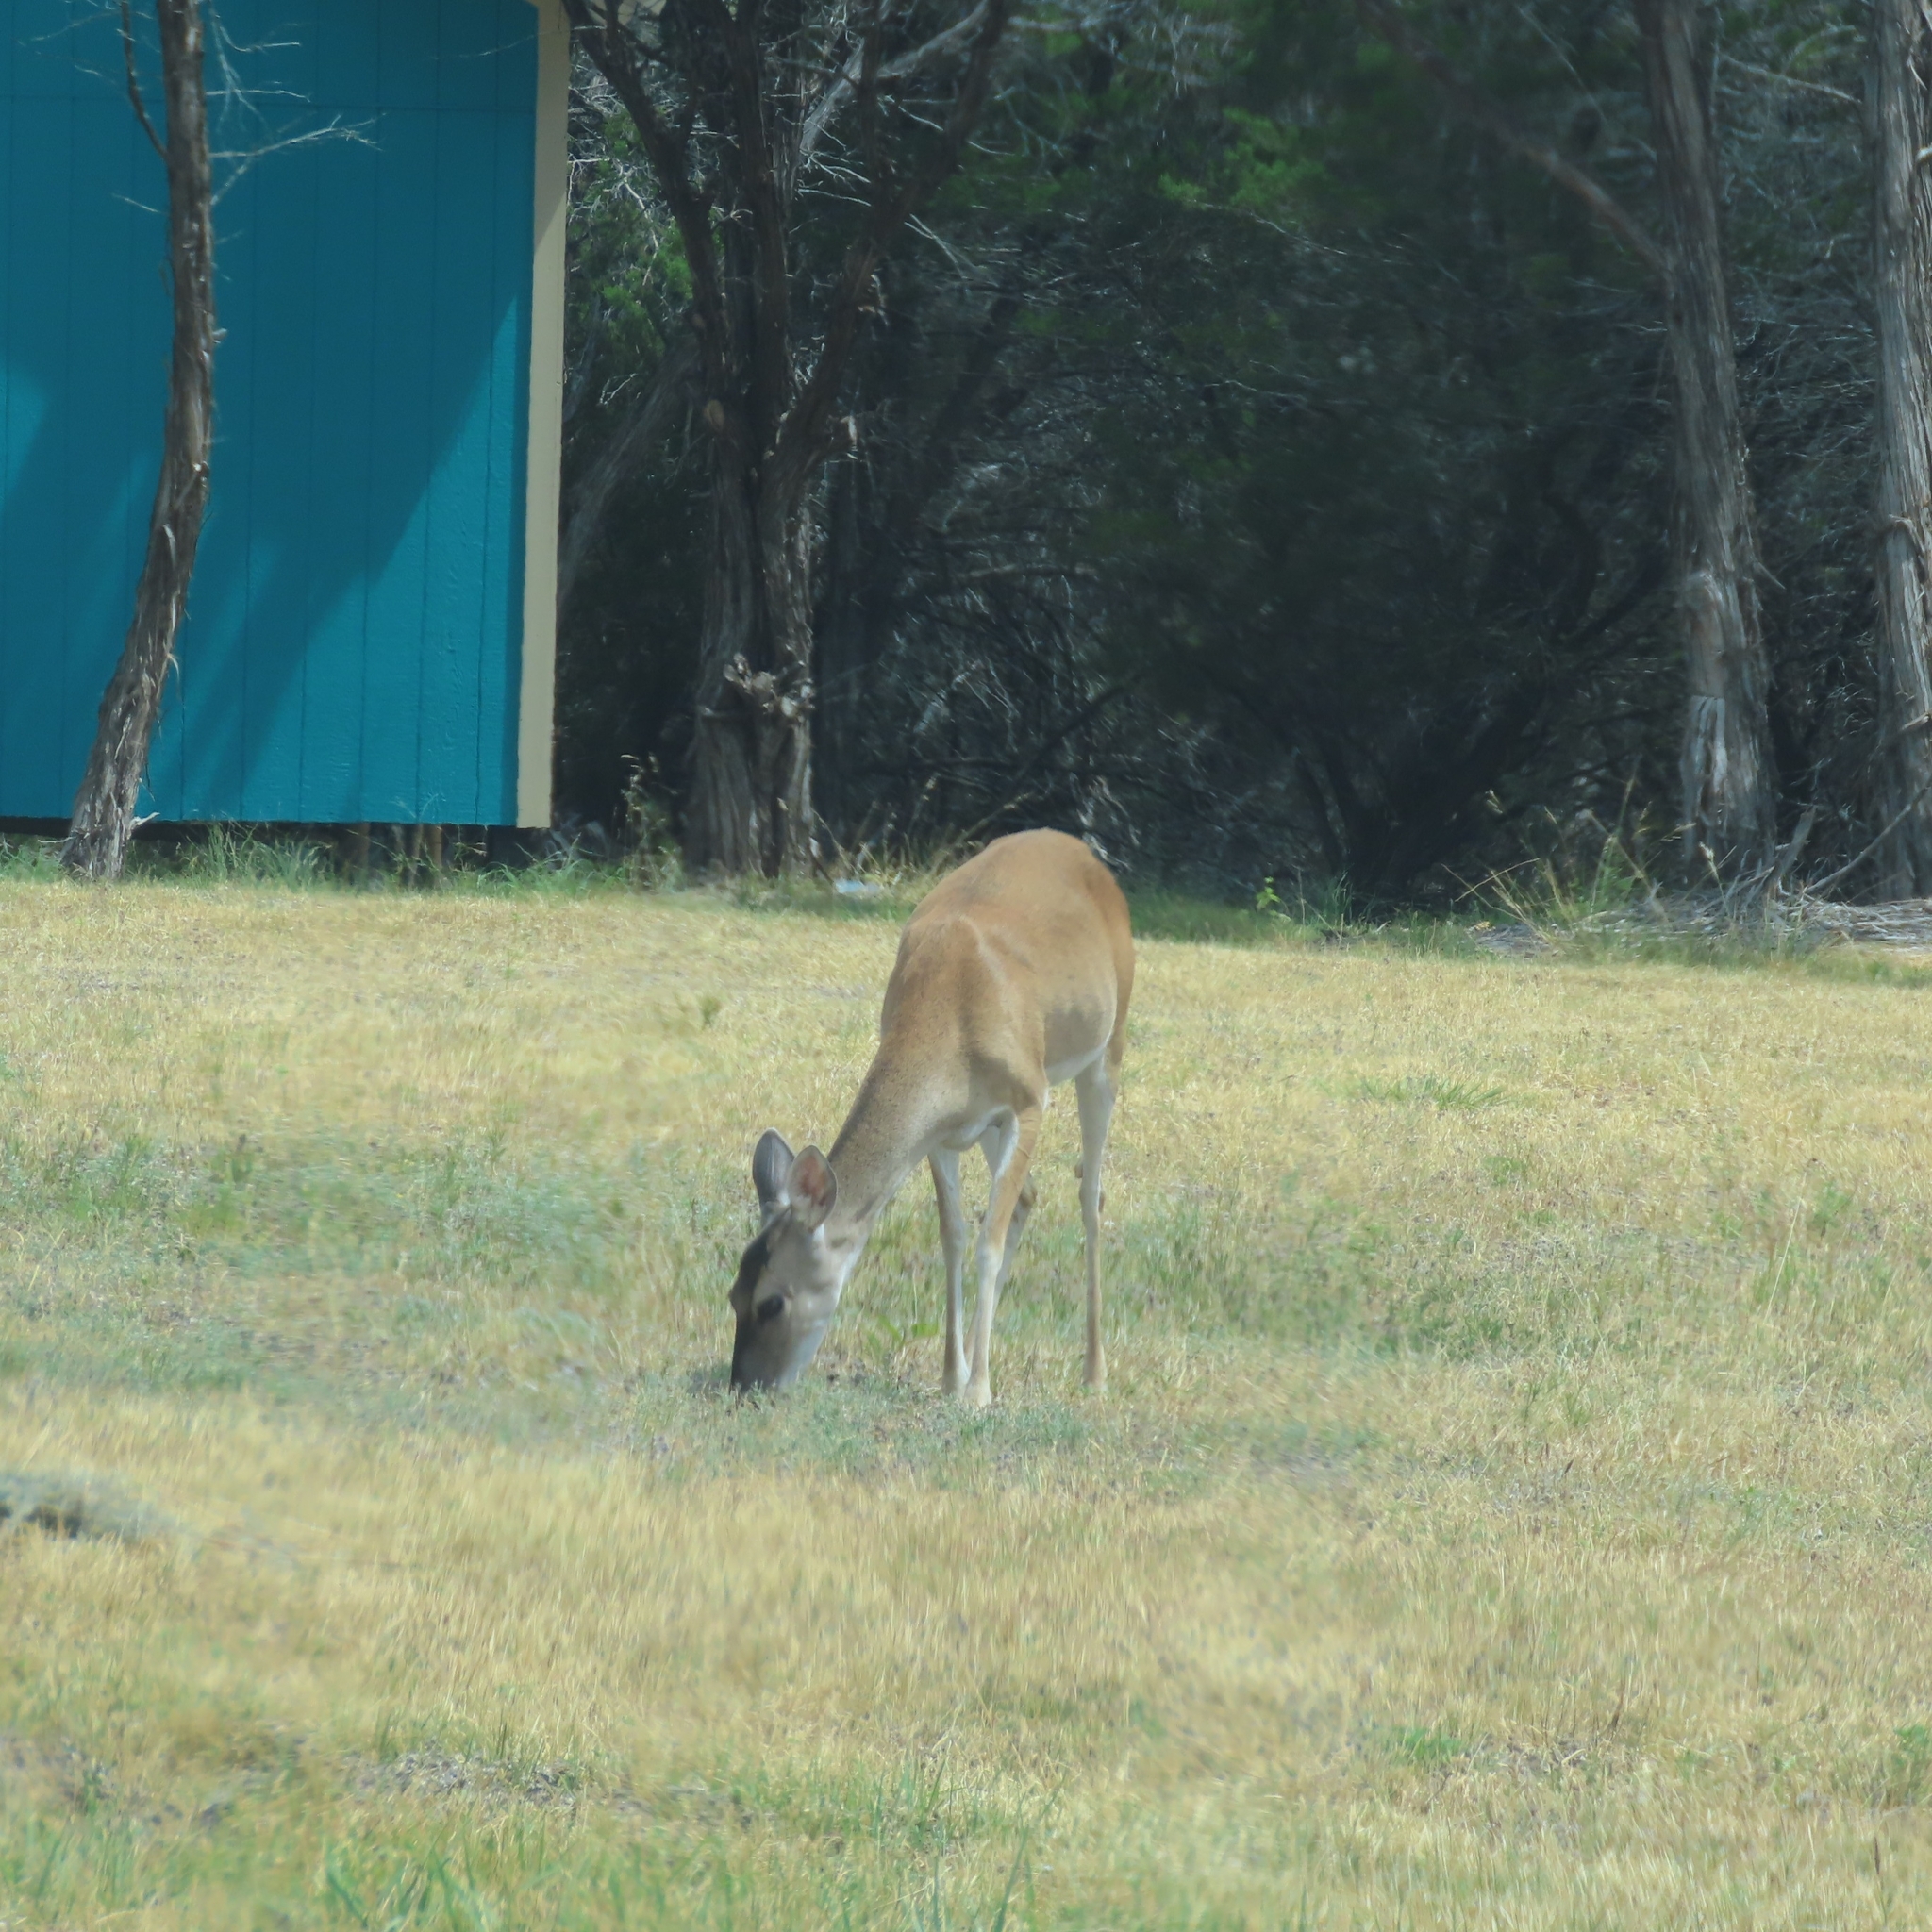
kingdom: Animalia
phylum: Chordata
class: Mammalia
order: Artiodactyla
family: Cervidae
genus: Odocoileus
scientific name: Odocoileus virginianus
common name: White-tailed deer
